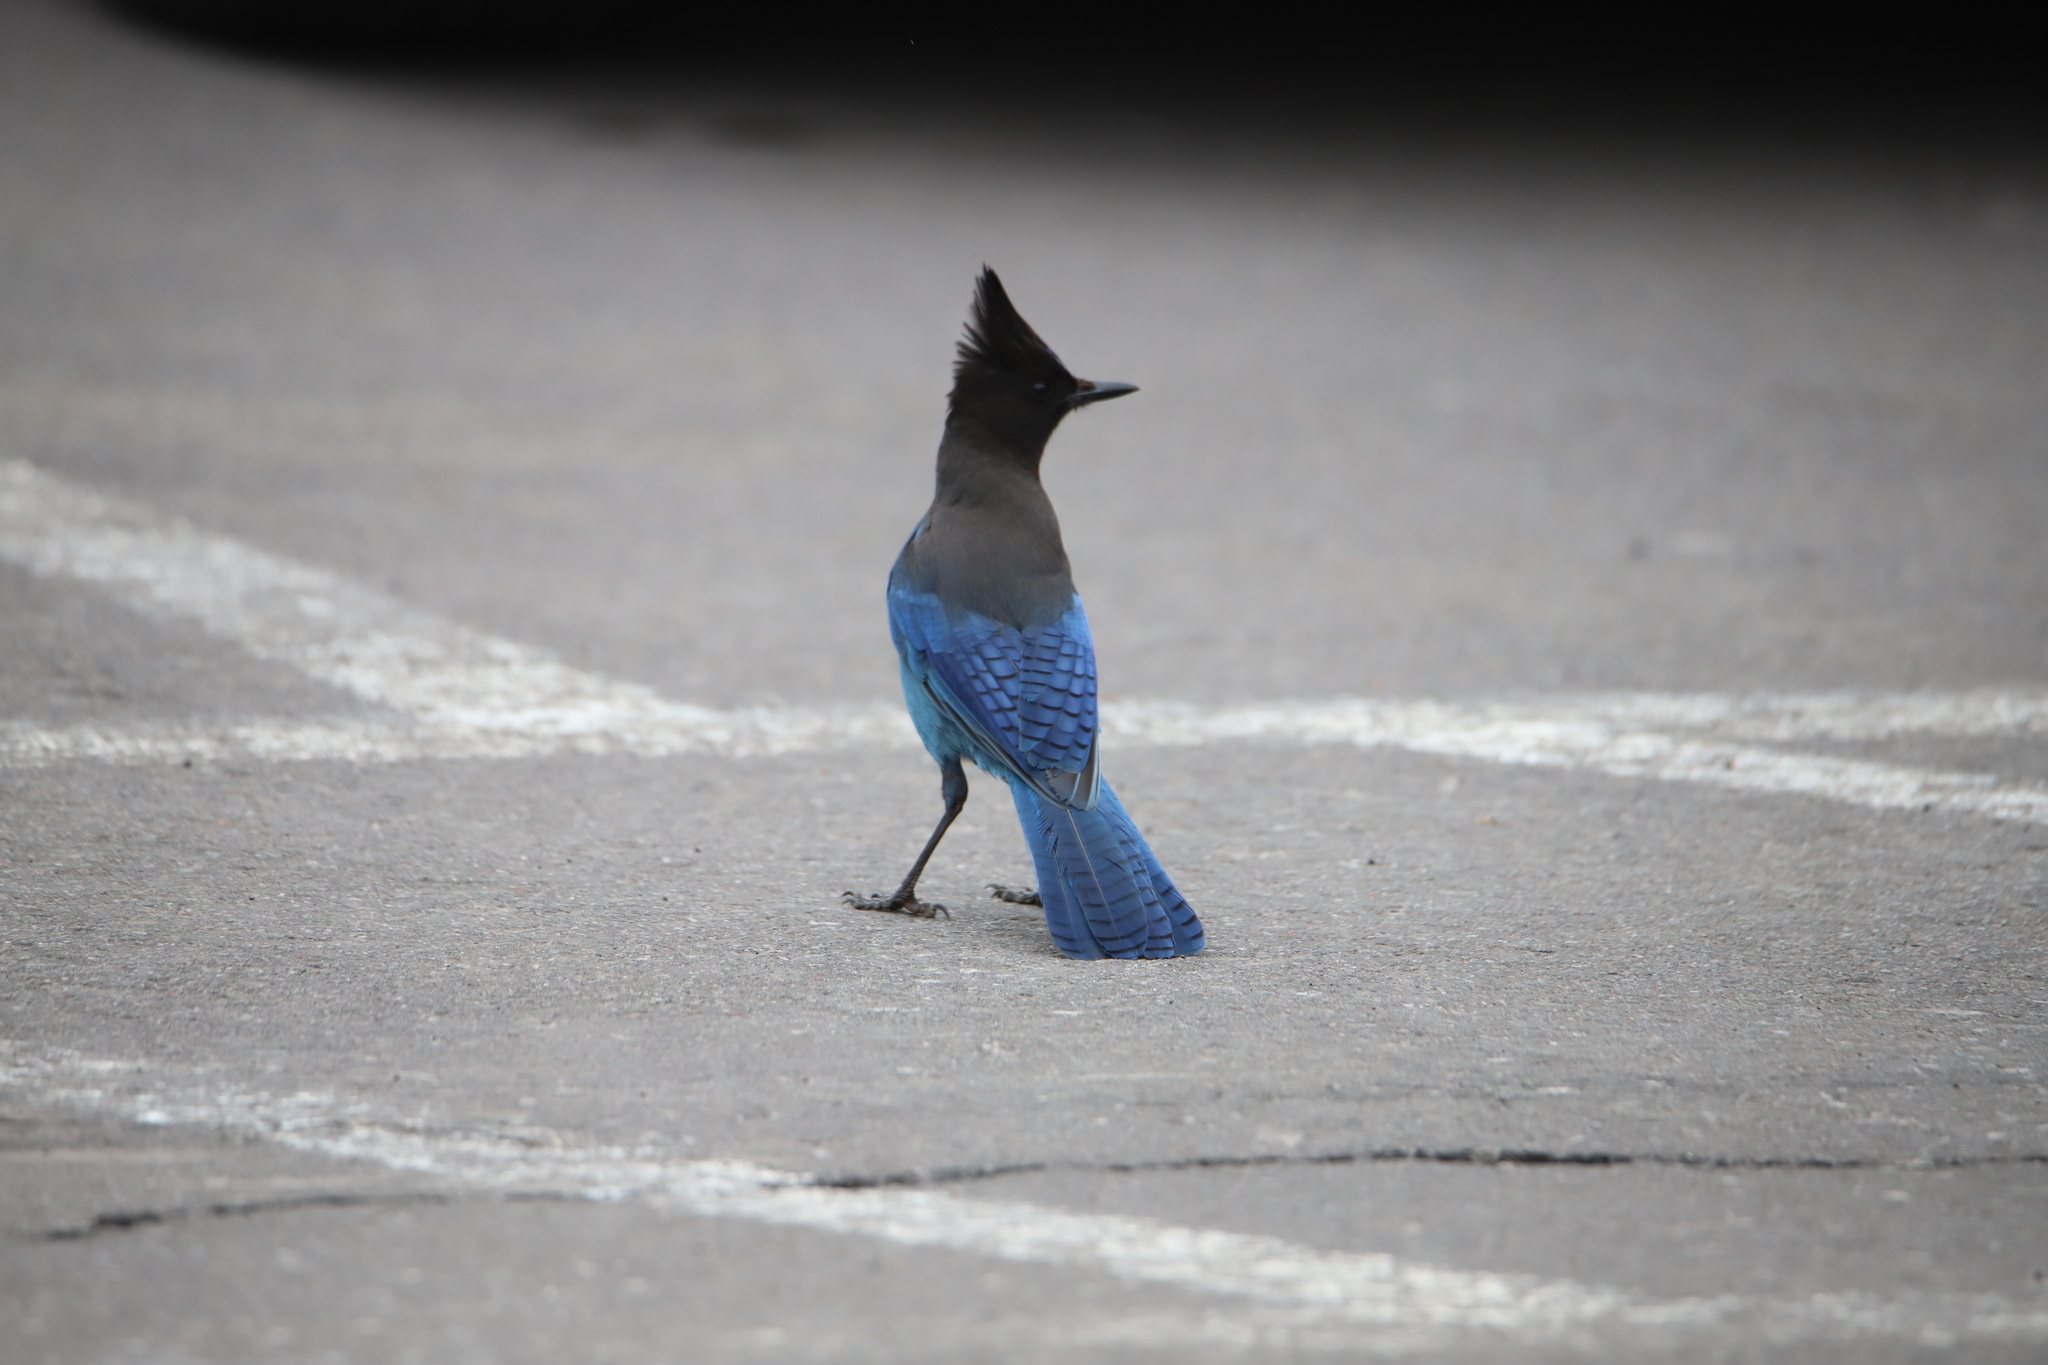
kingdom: Animalia
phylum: Chordata
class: Aves
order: Passeriformes
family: Corvidae
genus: Cyanocitta
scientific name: Cyanocitta stelleri
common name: Steller's jay
